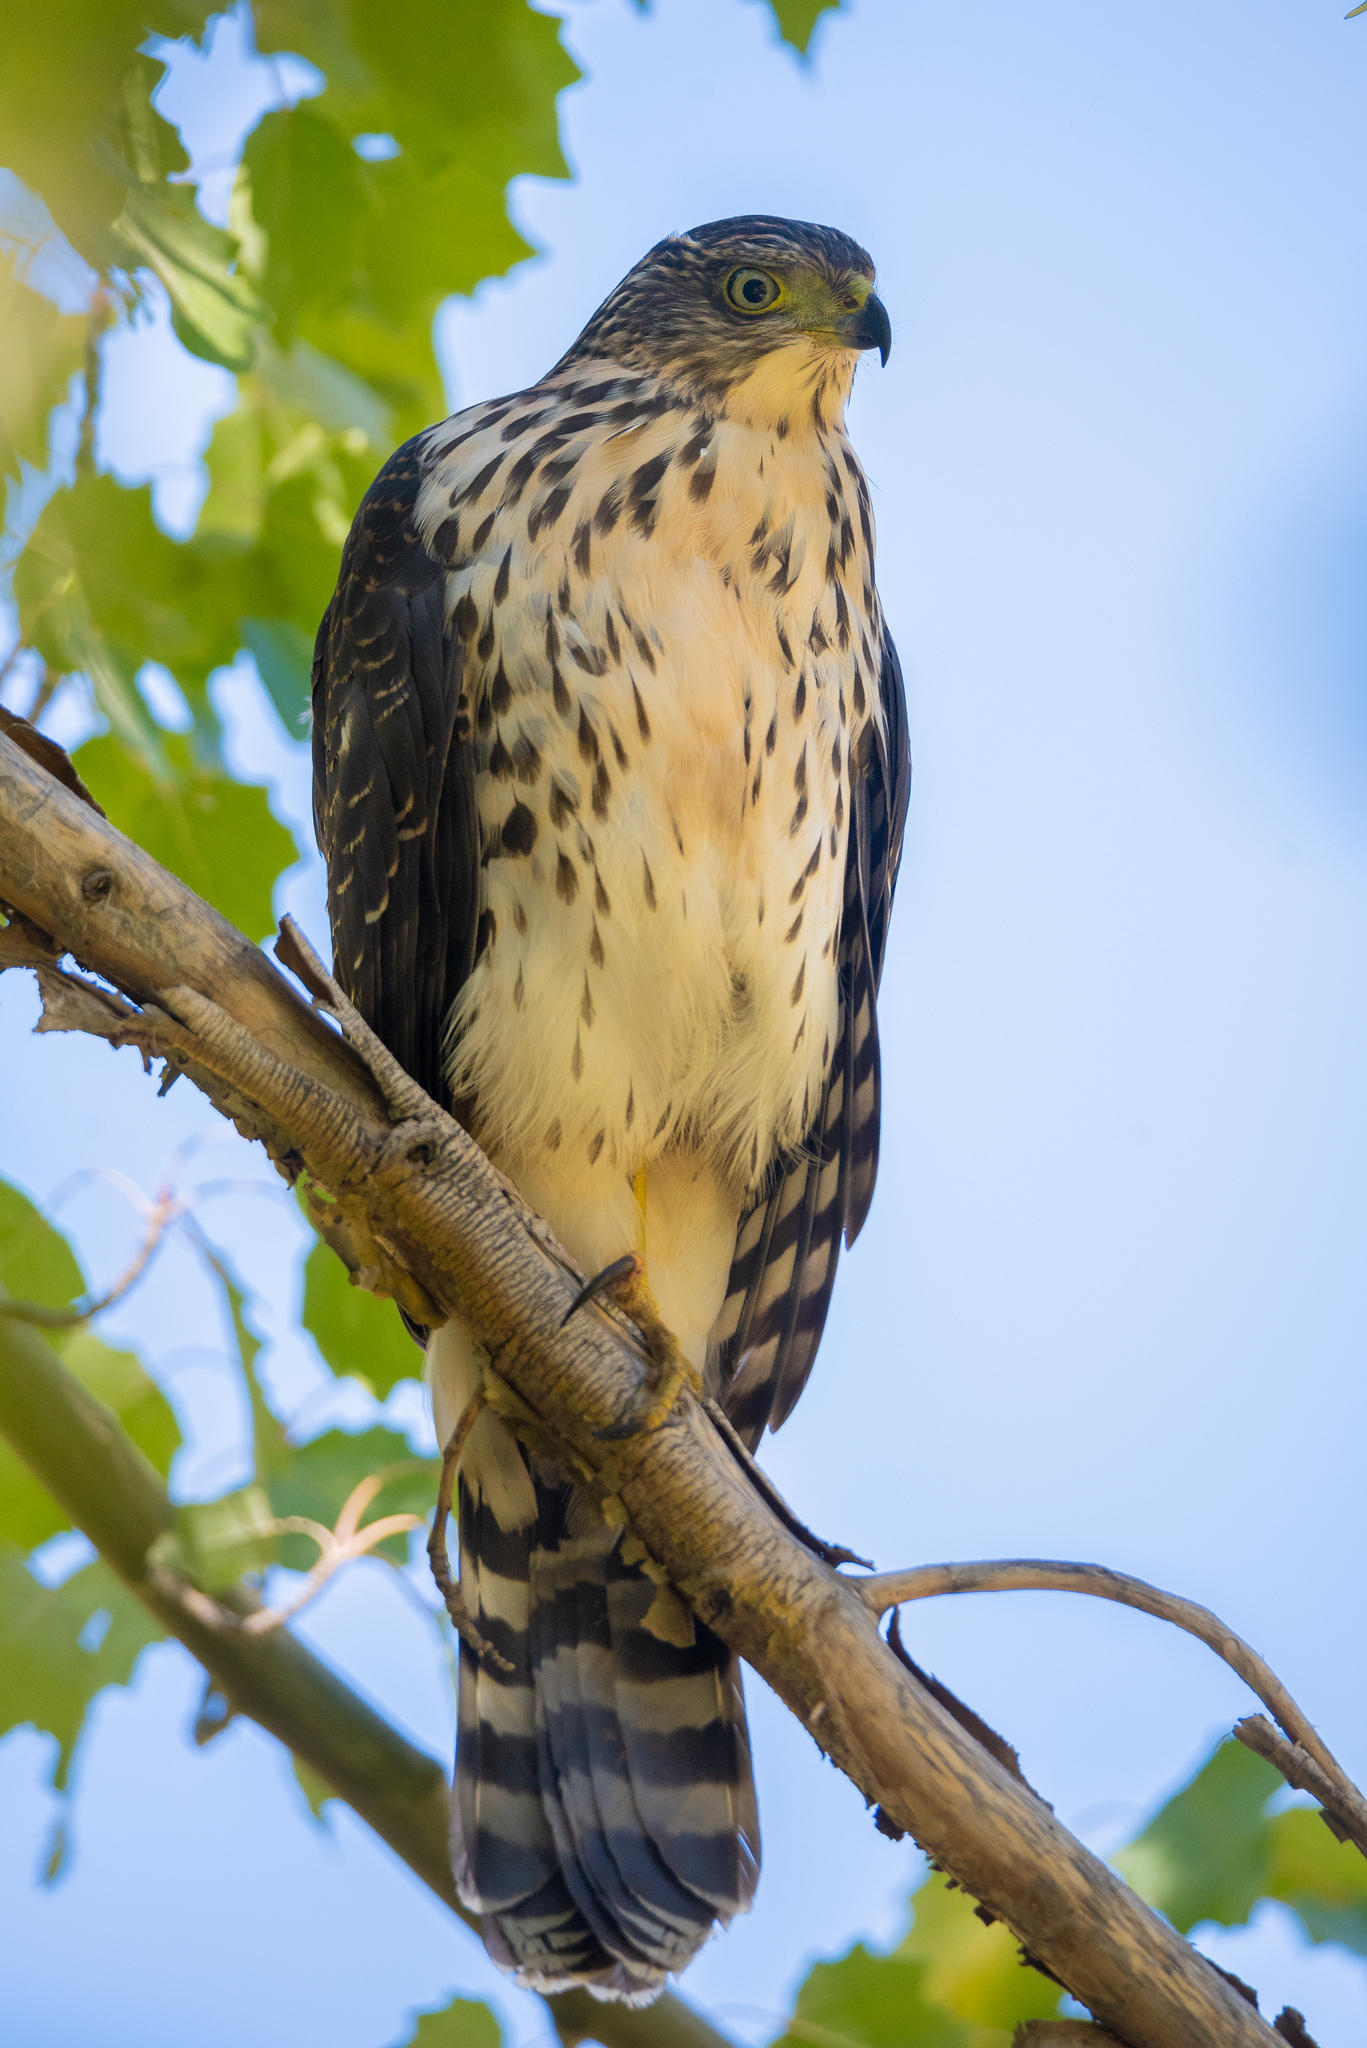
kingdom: Animalia
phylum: Chordata
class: Aves
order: Accipitriformes
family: Accipitridae
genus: Accipiter
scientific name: Accipiter chilensis
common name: Chilean hawk
